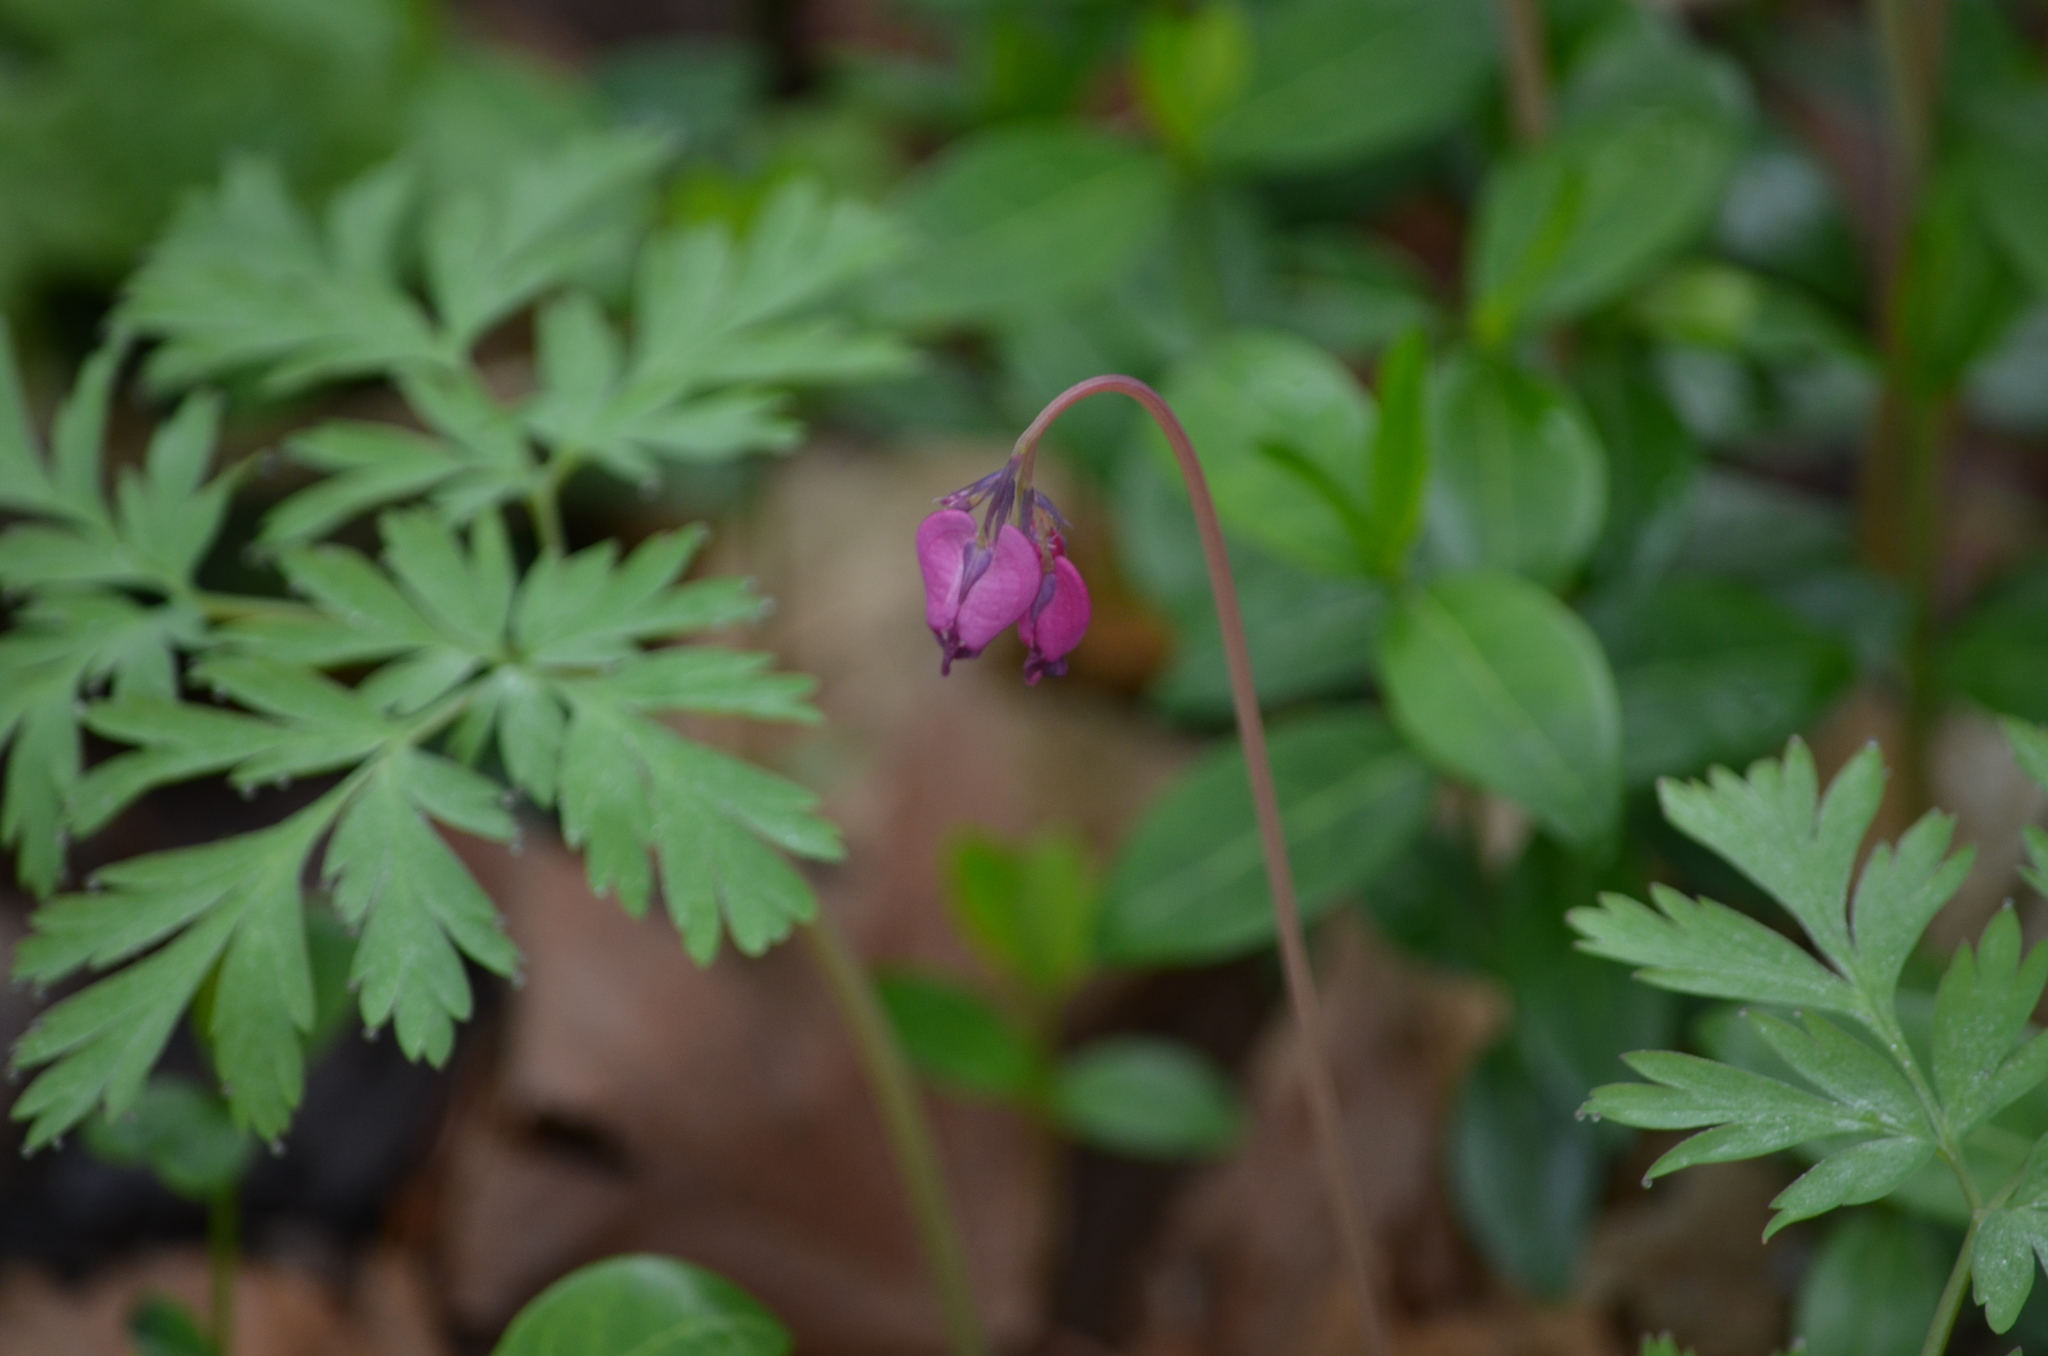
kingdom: Plantae
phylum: Tracheophyta
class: Magnoliopsida
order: Ranunculales
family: Papaveraceae
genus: Dicentra
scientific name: Dicentra formosa
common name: Bleeding-heart
